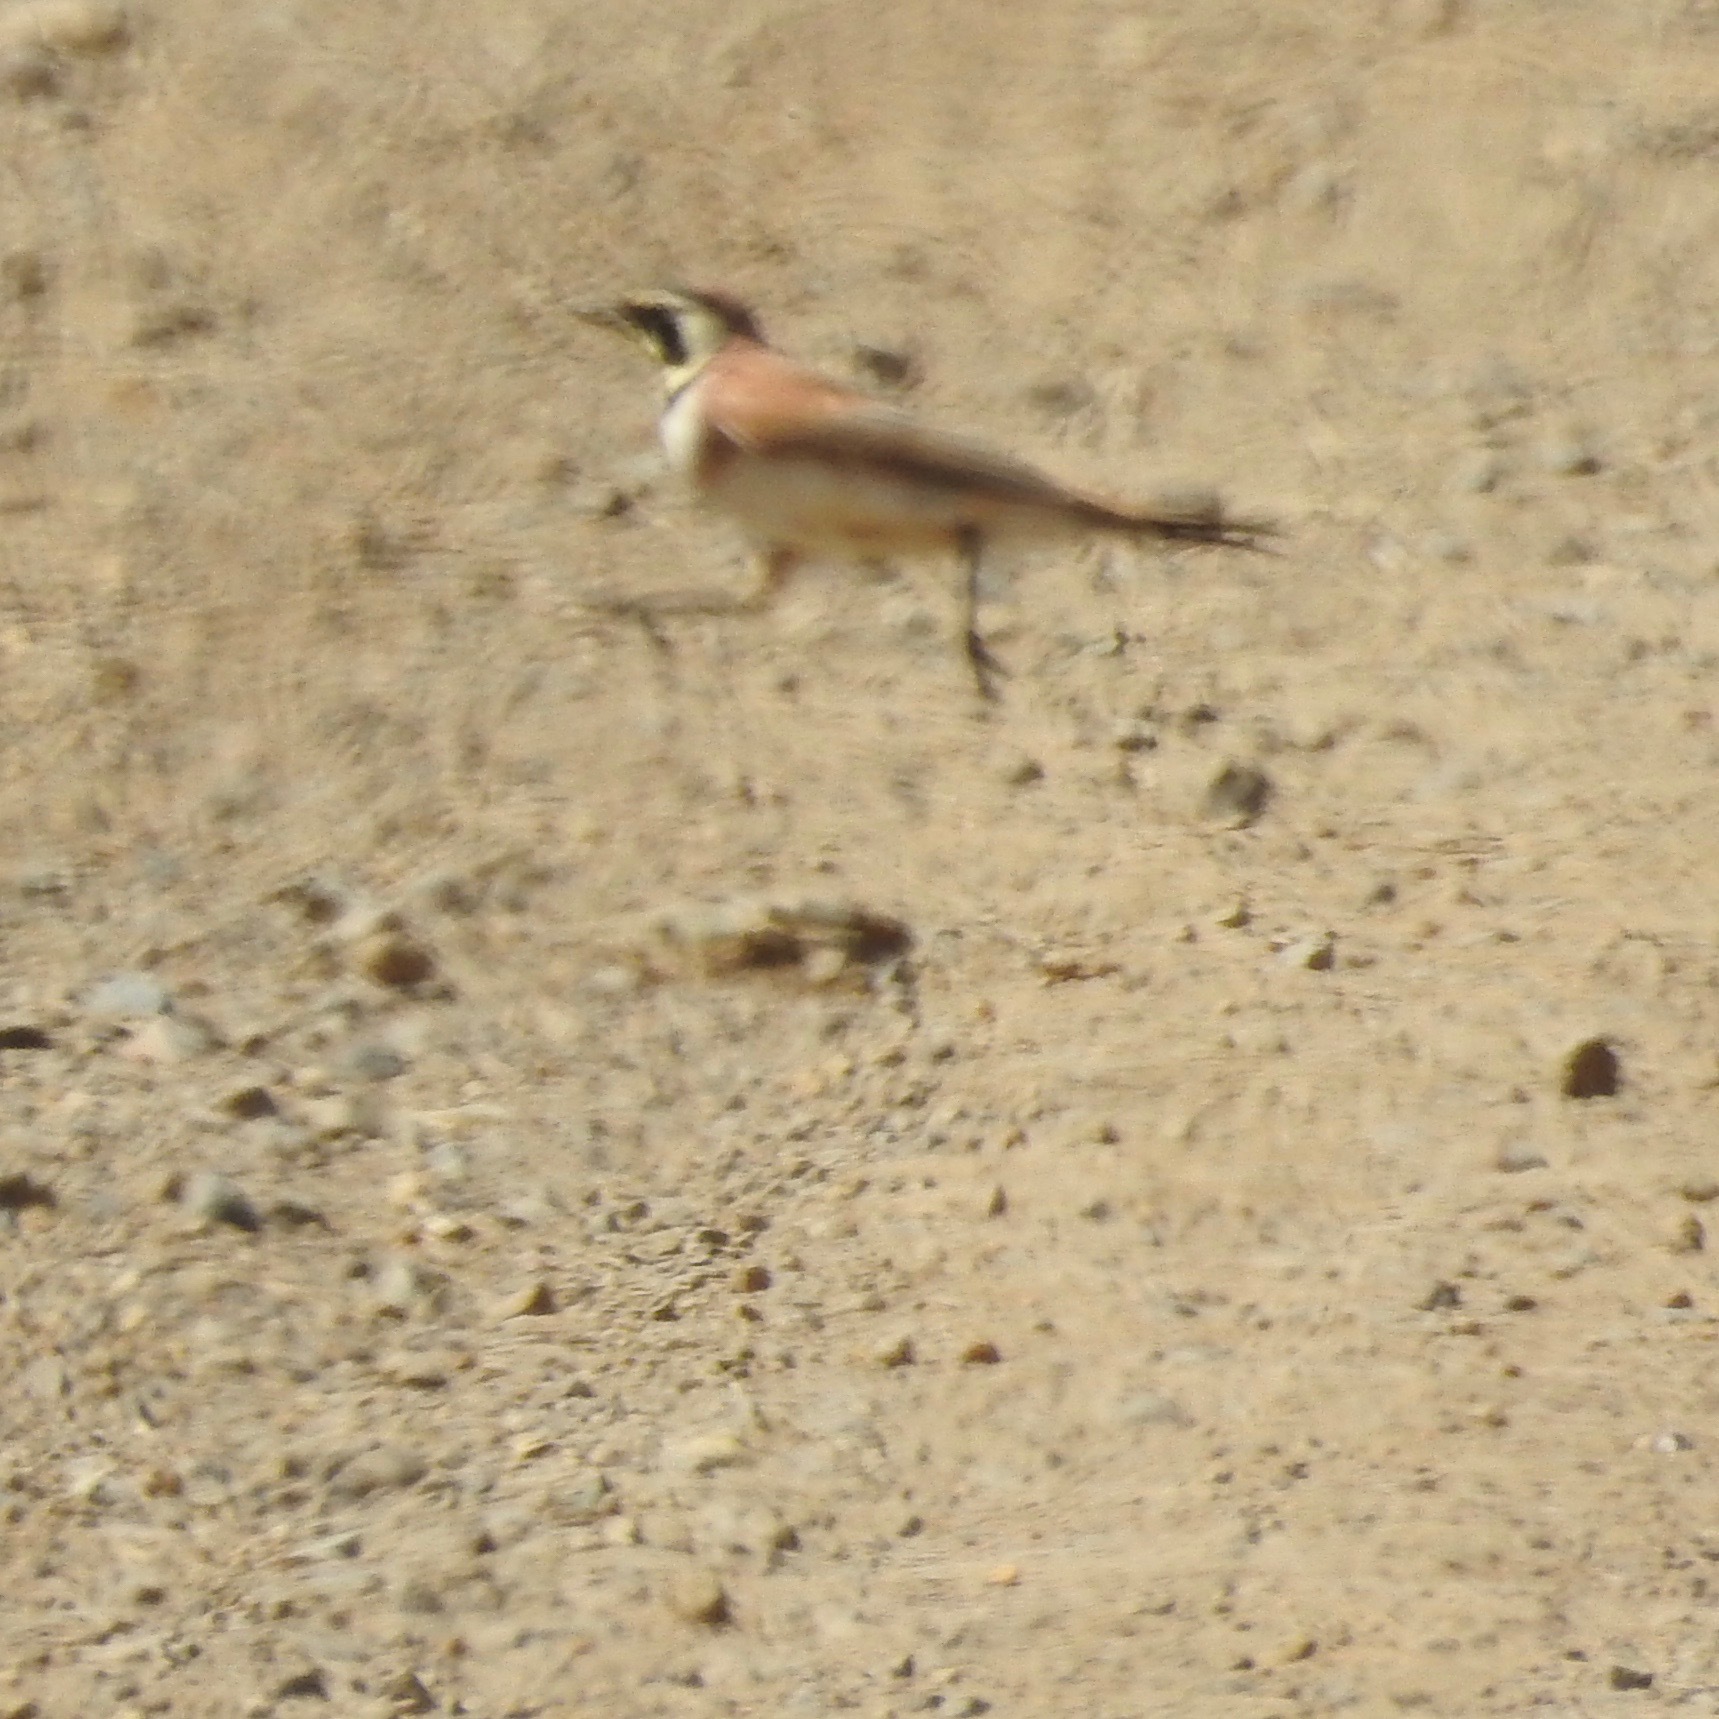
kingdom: Animalia
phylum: Chordata
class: Aves
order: Passeriformes
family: Alaudidae
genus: Eremophila
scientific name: Eremophila alpestris
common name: Horned lark
